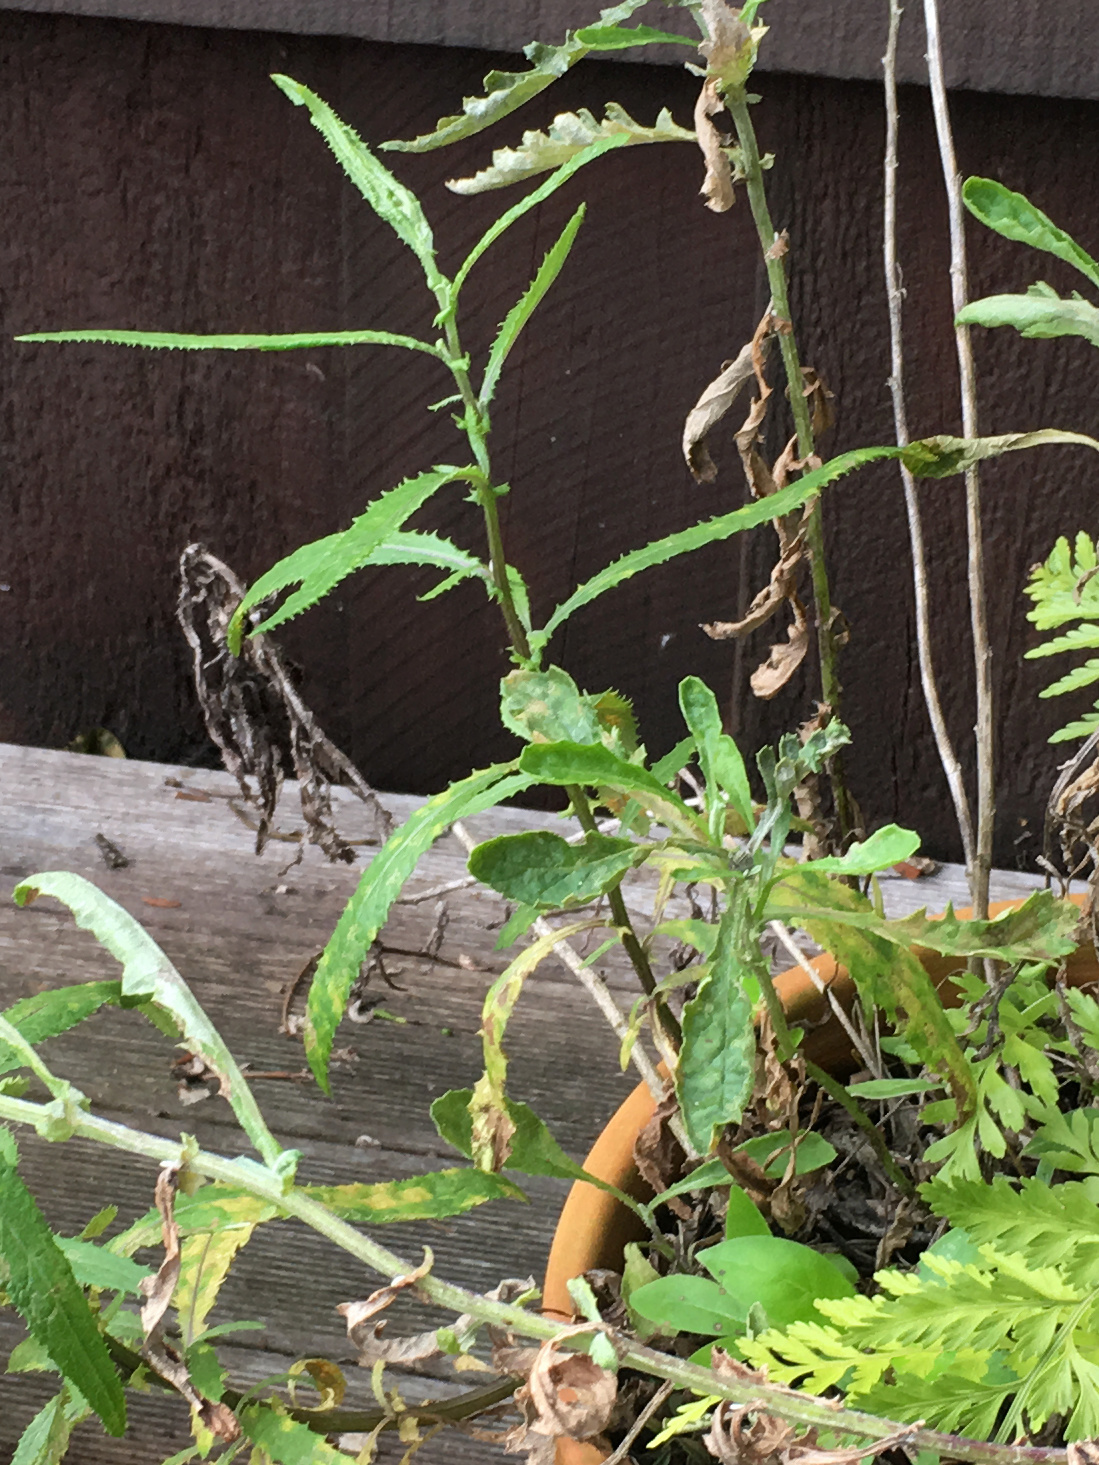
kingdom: Plantae
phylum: Tracheophyta
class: Magnoliopsida
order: Asterales
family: Asteraceae
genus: Senecio
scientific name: Senecio minimus
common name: Toothed fireweed
